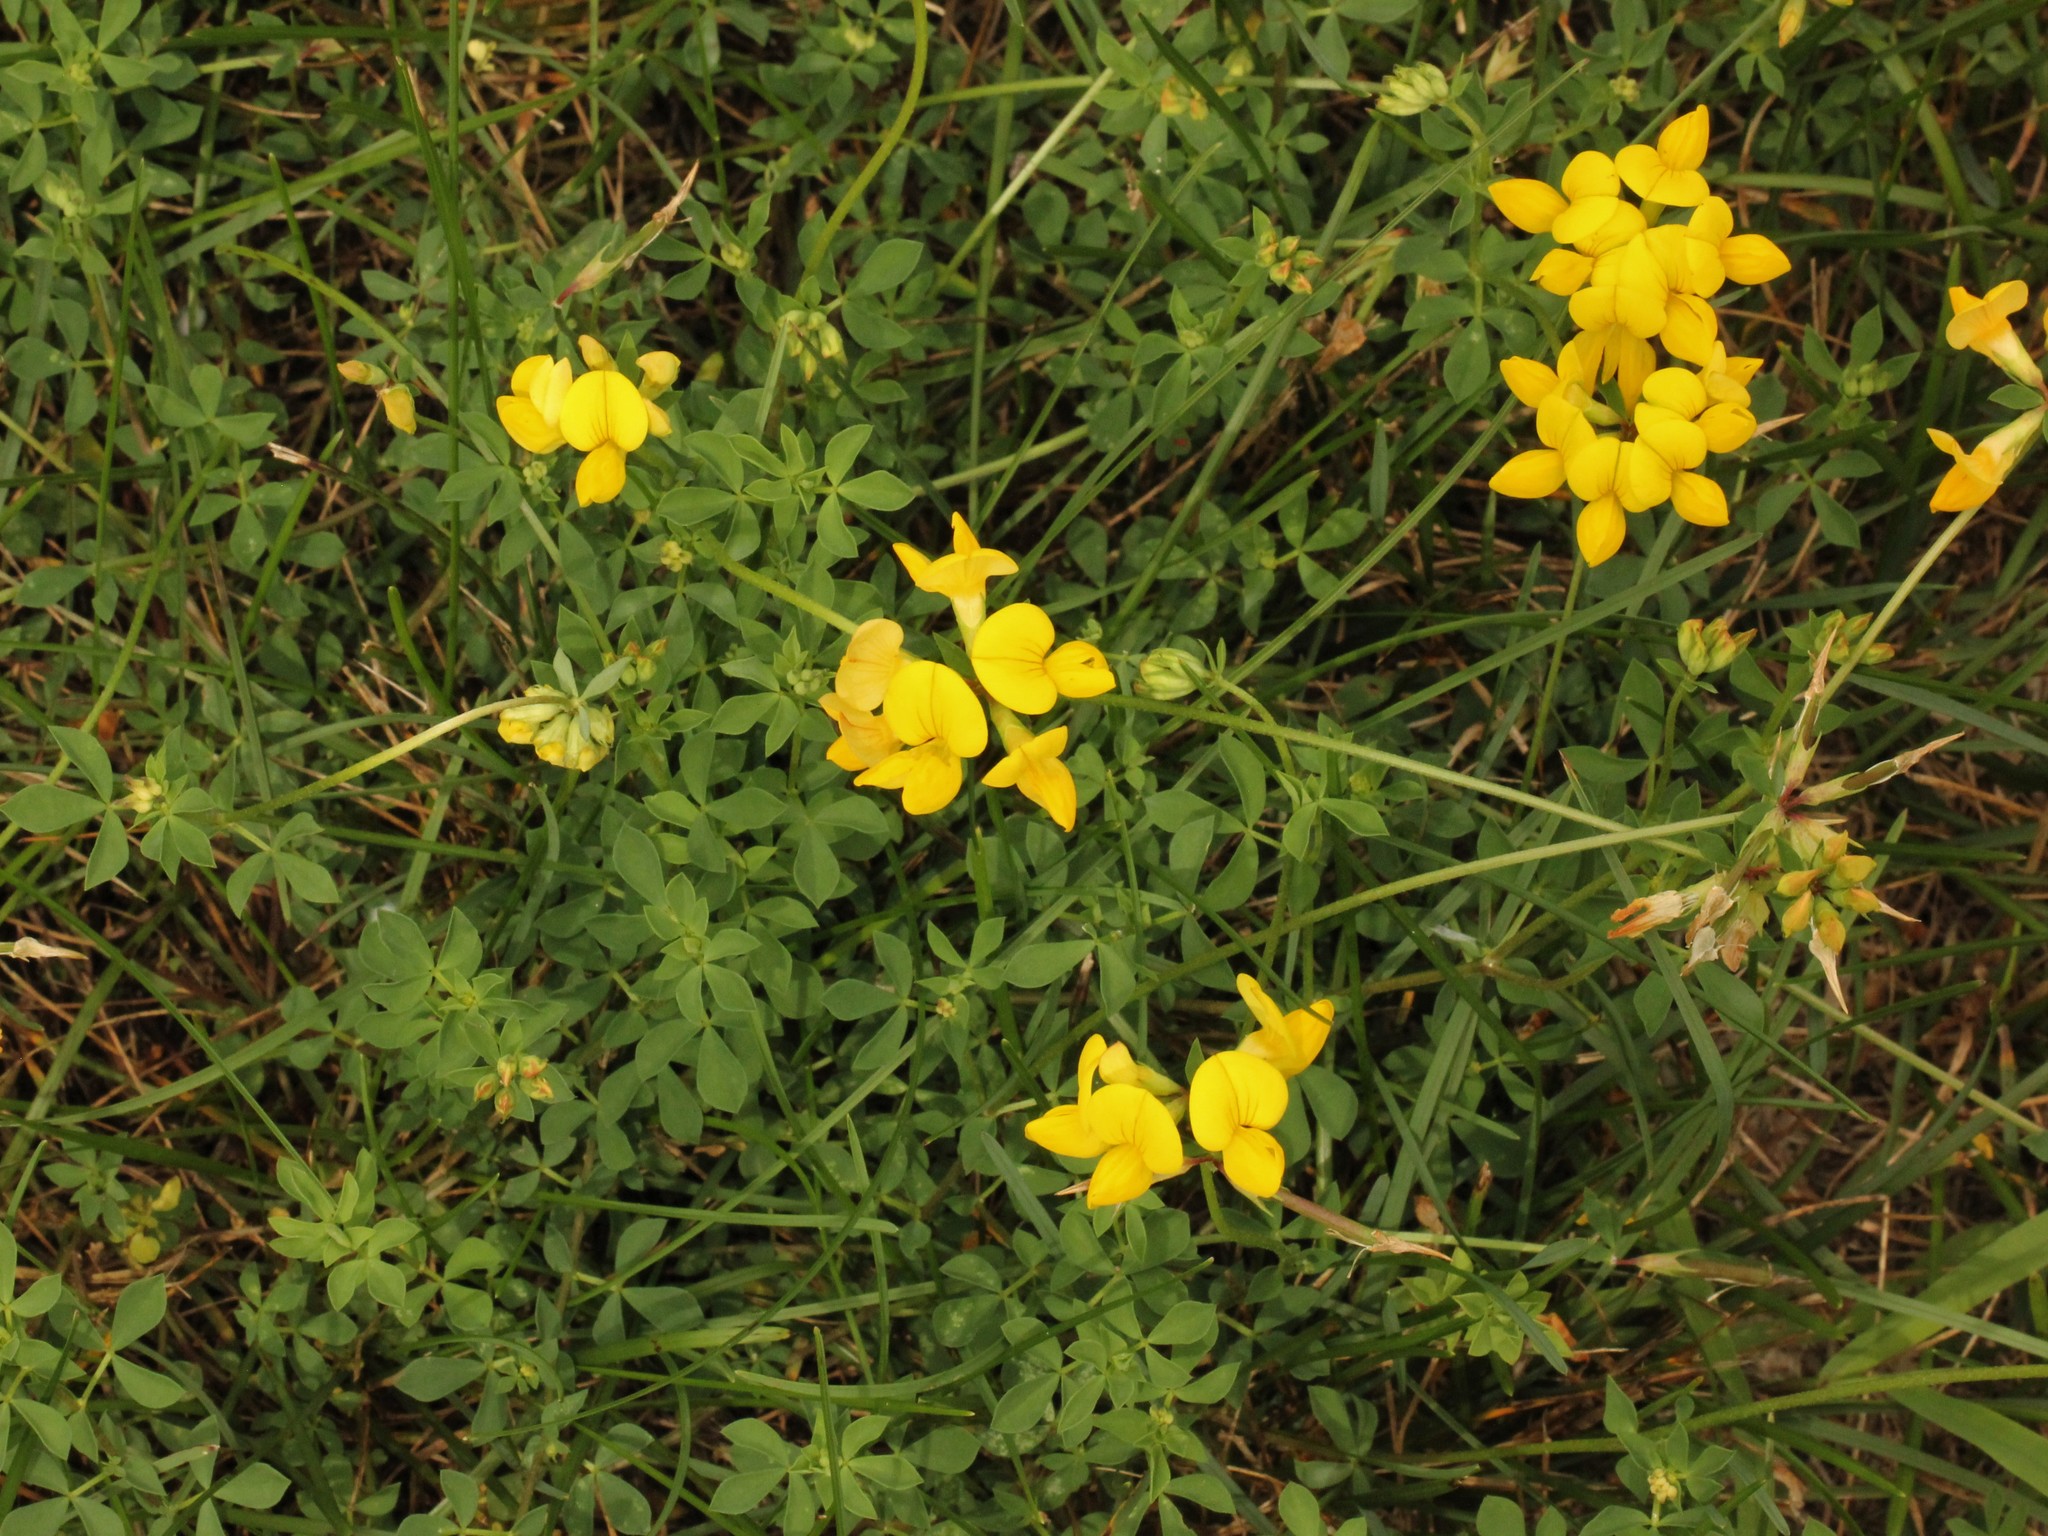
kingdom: Plantae
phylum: Tracheophyta
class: Magnoliopsida
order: Fabales
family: Fabaceae
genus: Lotus
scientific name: Lotus corniculatus
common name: Common bird's-foot-trefoil
